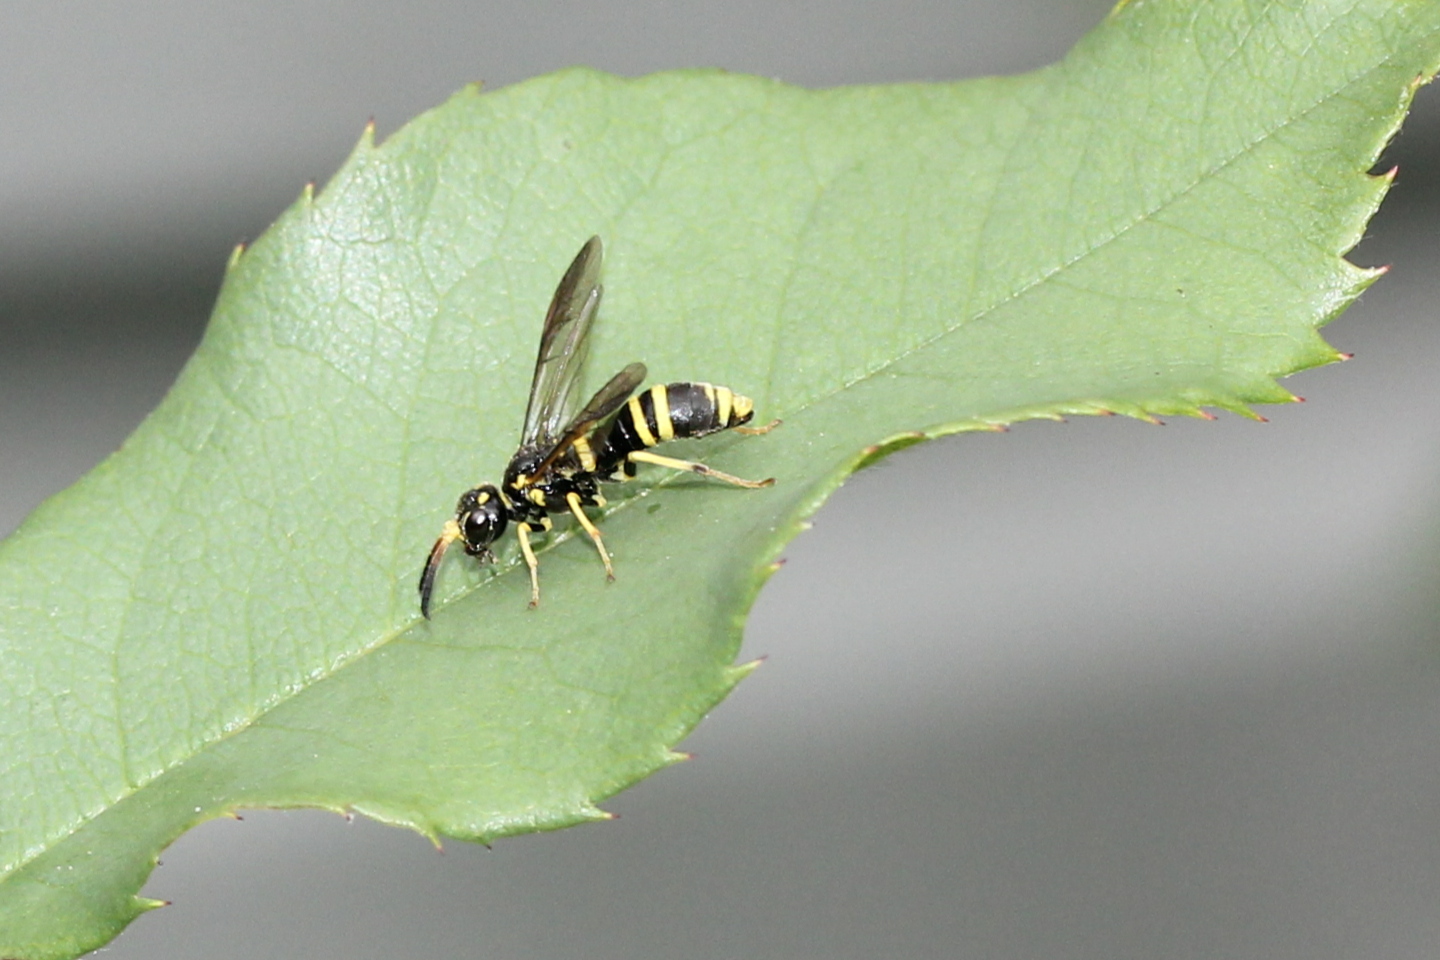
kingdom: Animalia
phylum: Arthropoda
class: Insecta
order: Hymenoptera
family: Tenthredinidae
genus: Allantus
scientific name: Allantus viennensis
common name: Sawfly
